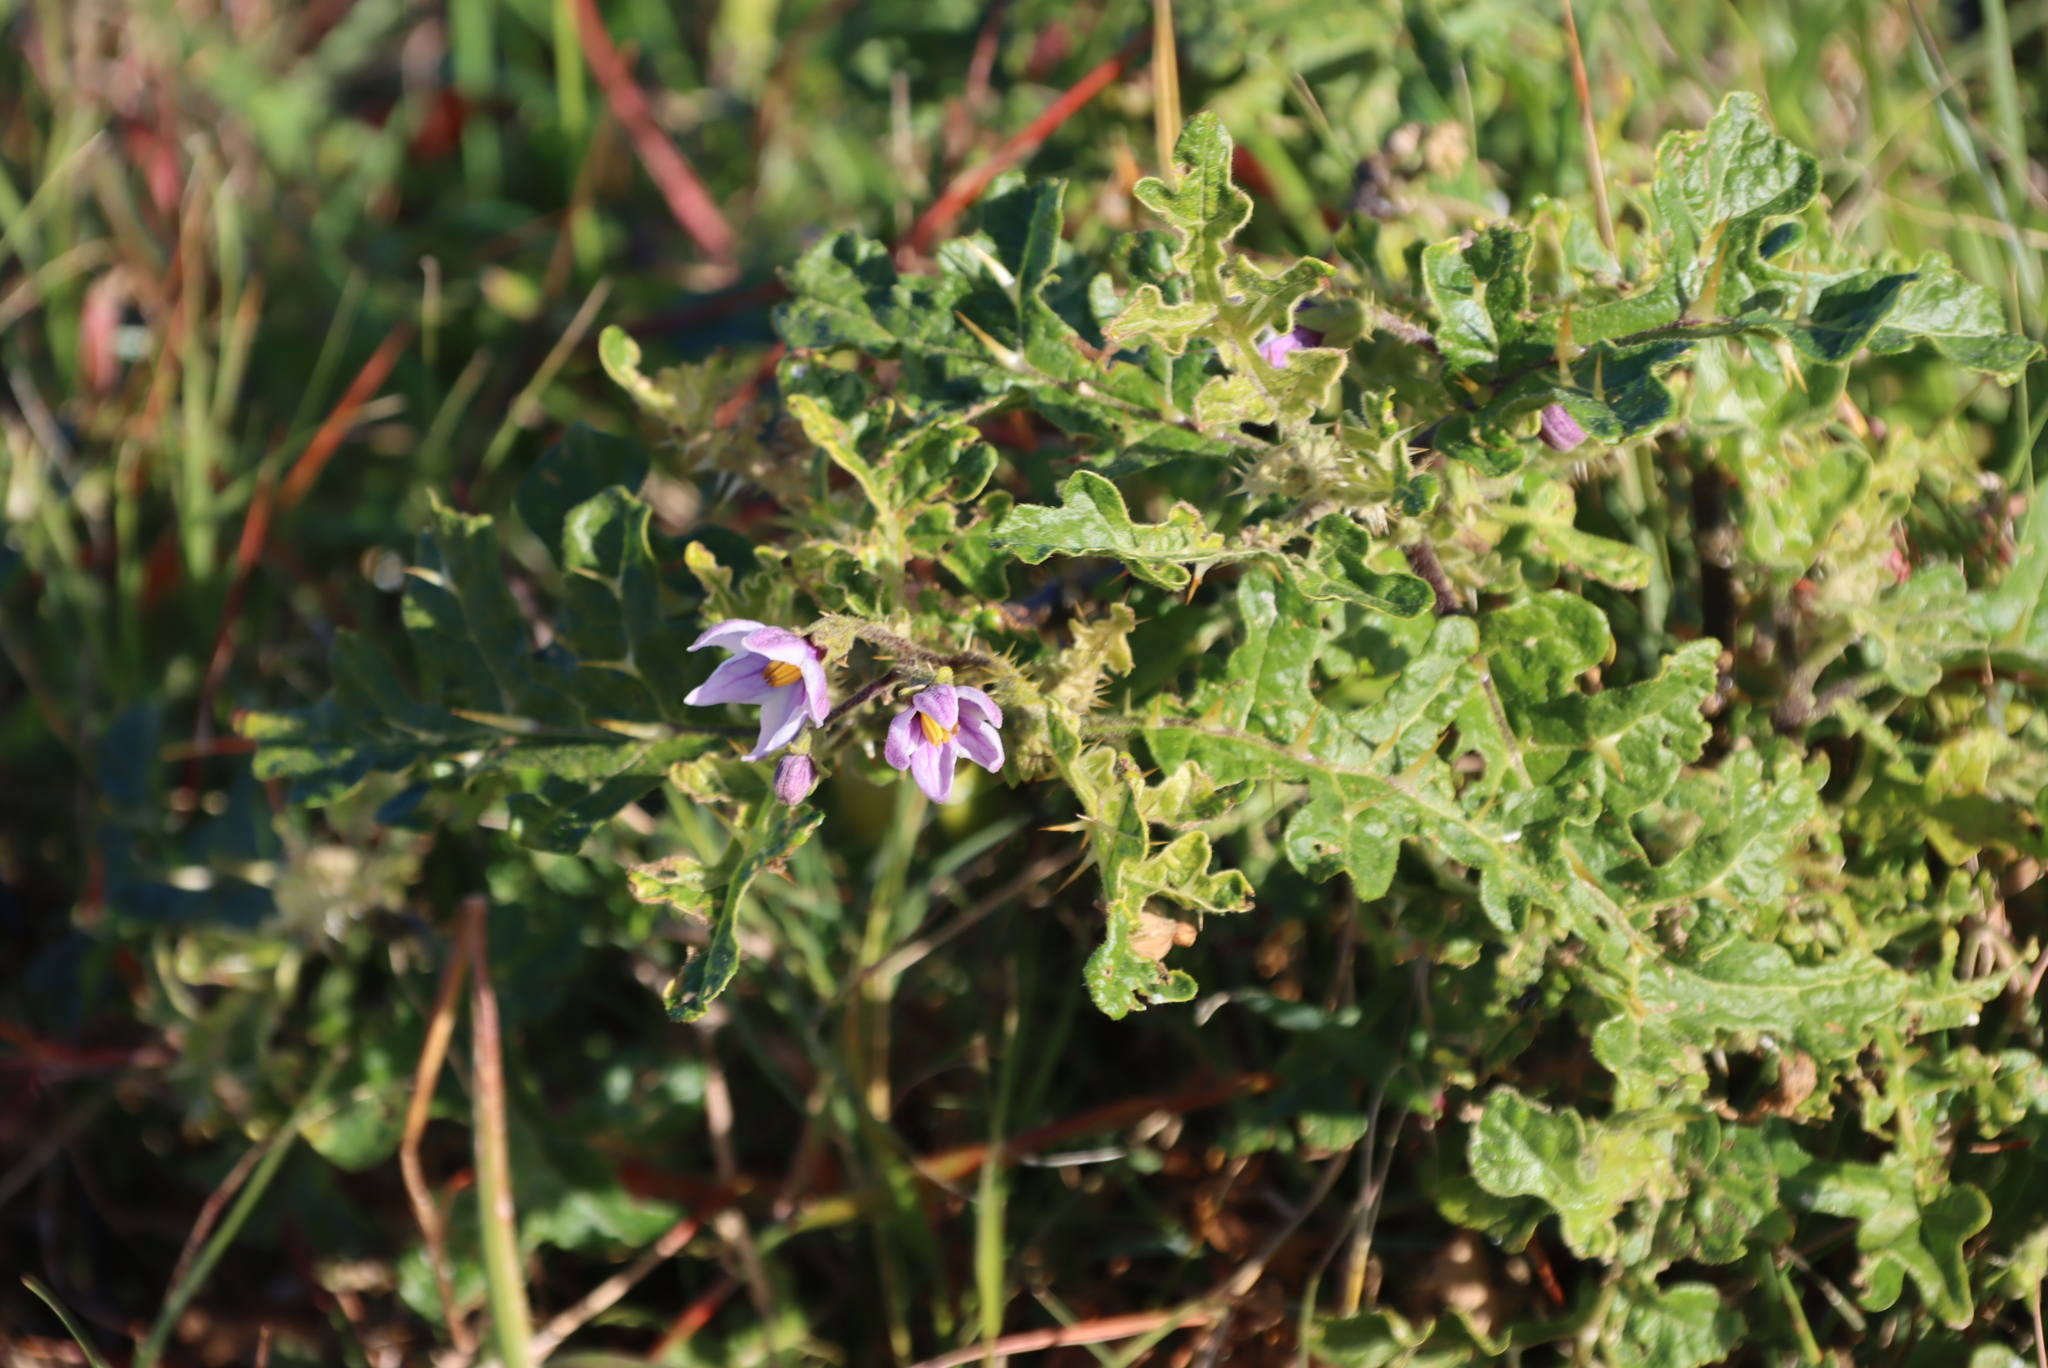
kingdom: Plantae
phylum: Tracheophyta
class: Magnoliopsida
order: Solanales
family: Solanaceae
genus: Solanum
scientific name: Solanum linnaeanum
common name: Nightshade
